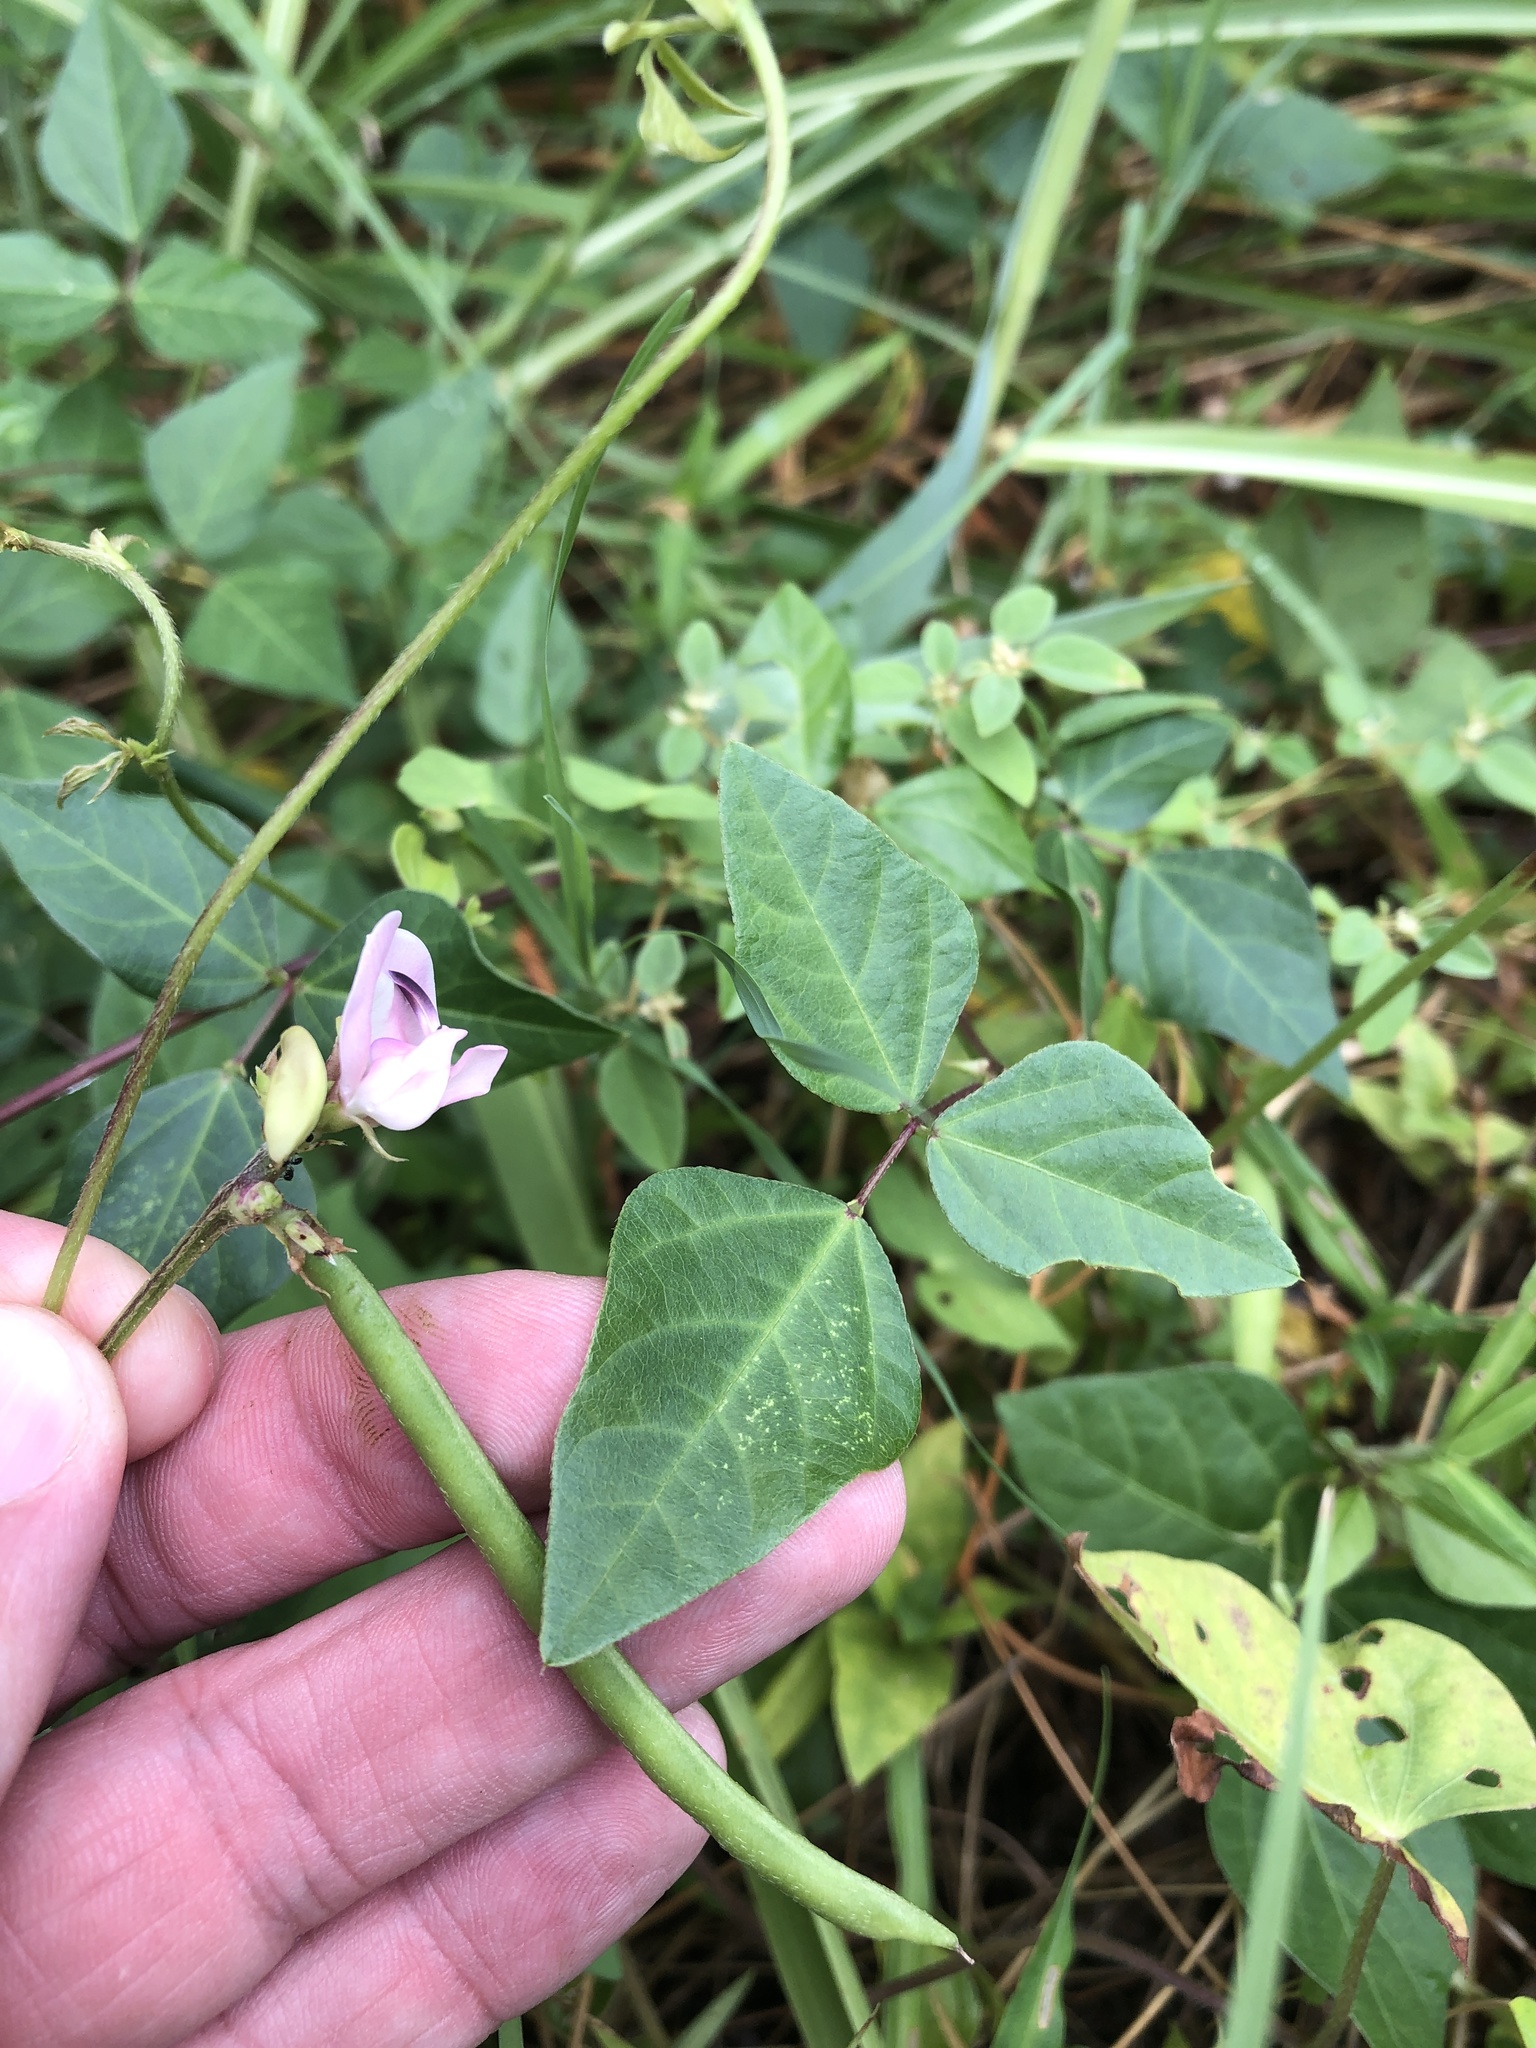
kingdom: Plantae
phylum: Tracheophyta
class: Magnoliopsida
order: Fabales
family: Fabaceae
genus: Strophostyles
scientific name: Strophostyles helvola
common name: Trailing wild bean
